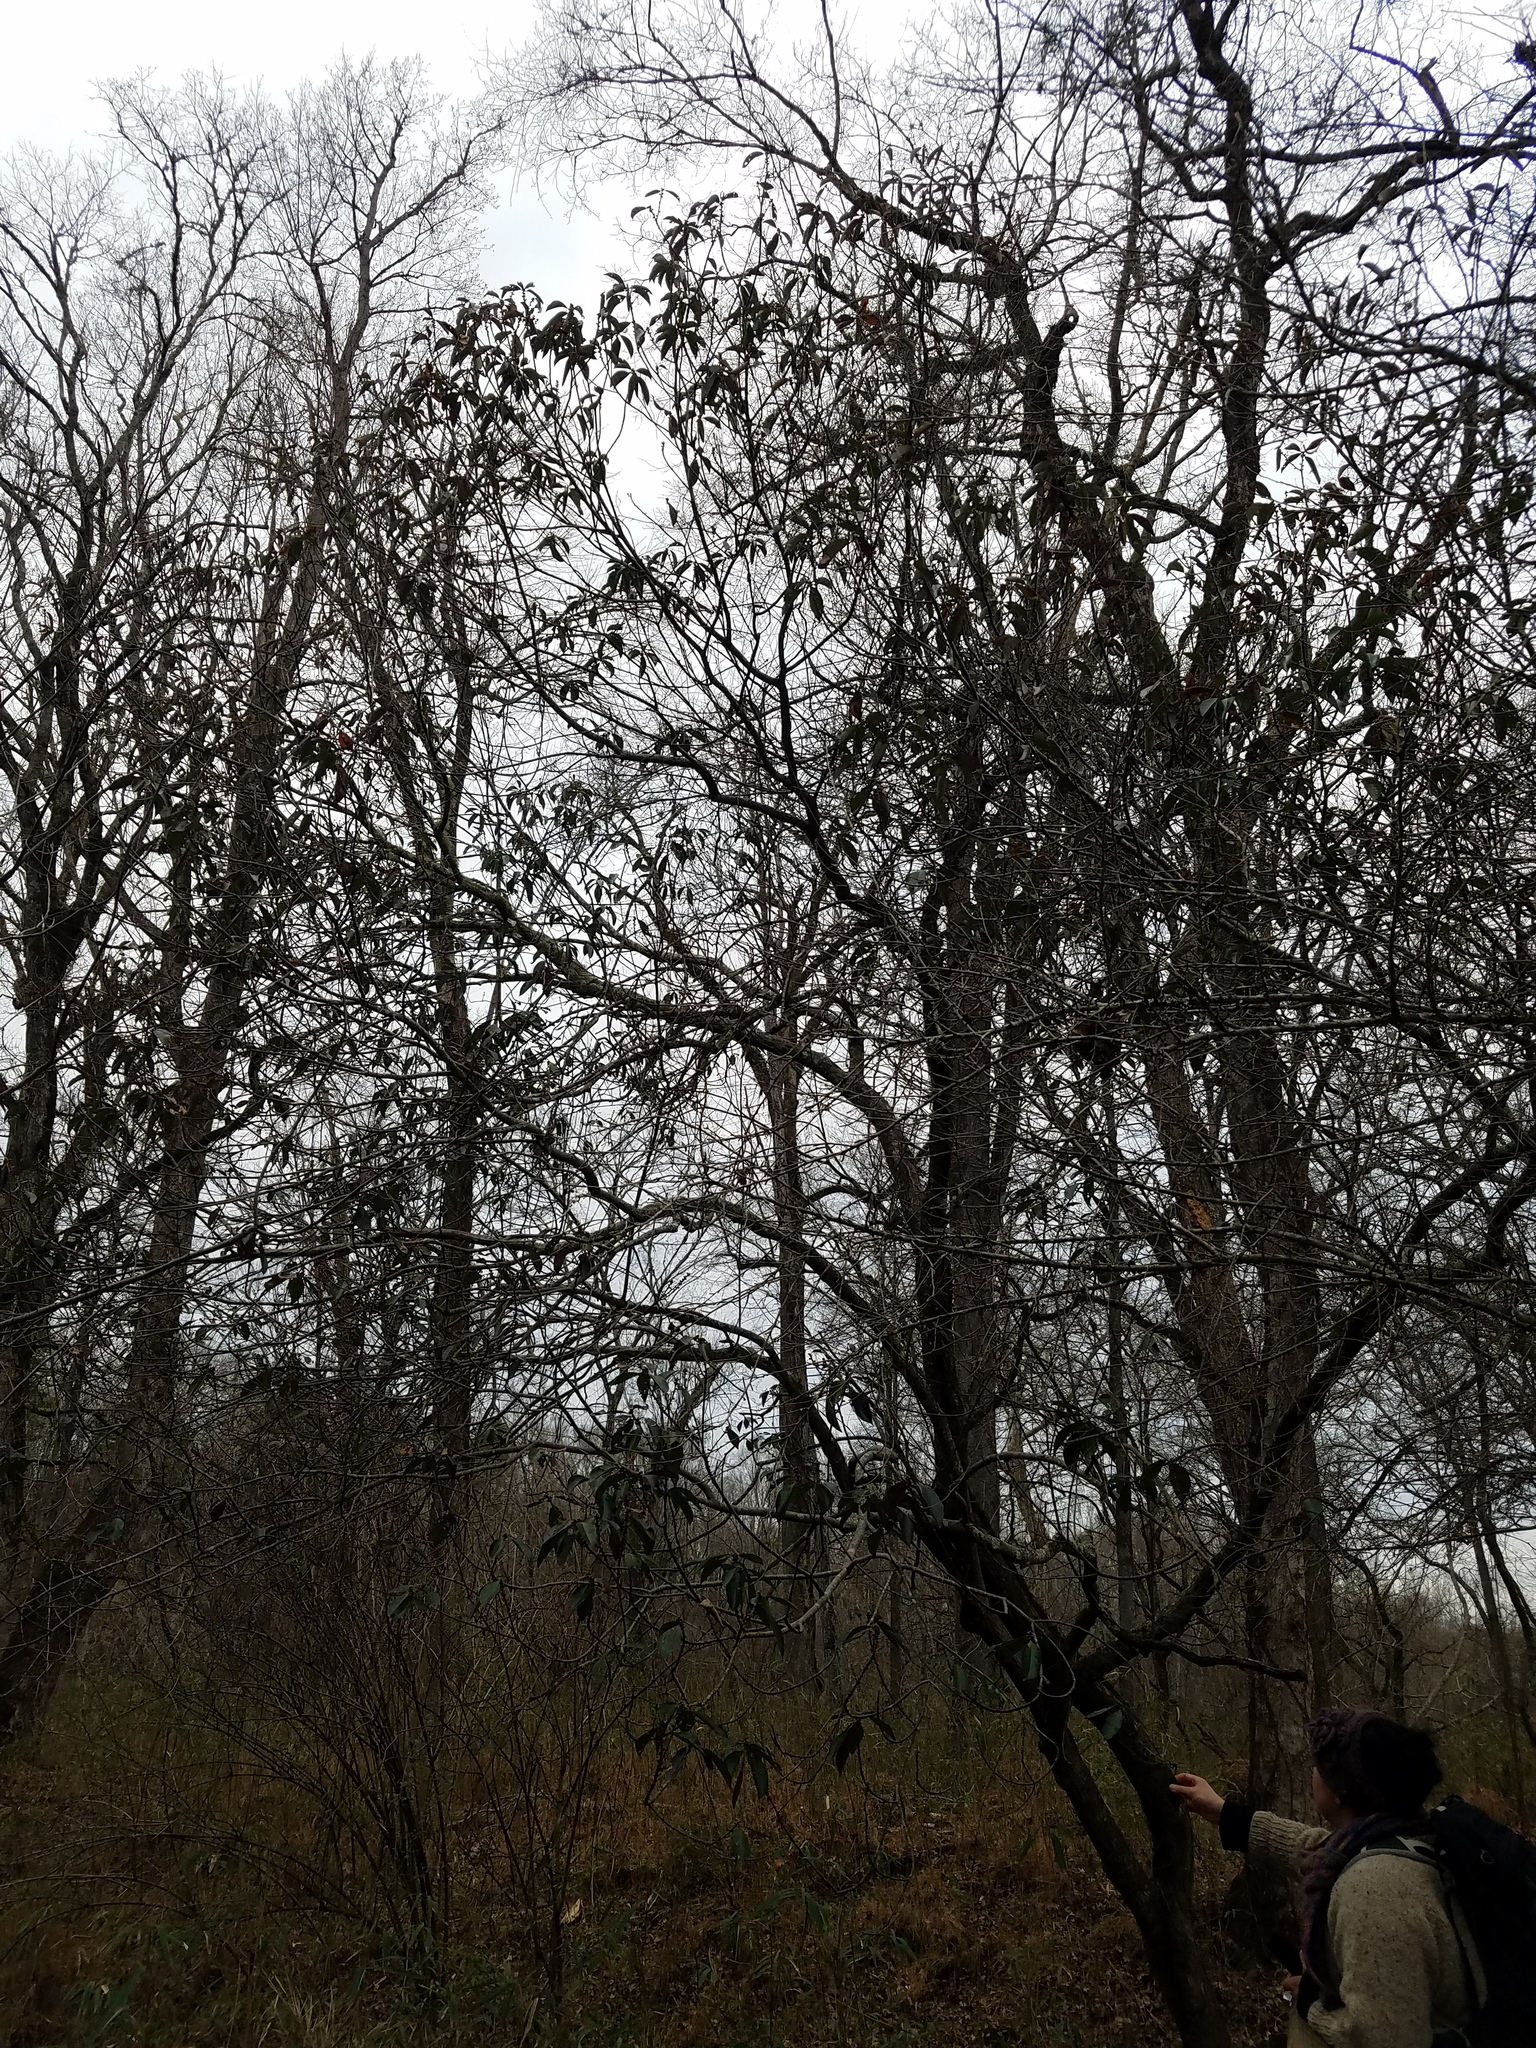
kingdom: Plantae
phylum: Tracheophyta
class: Magnoliopsida
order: Ericales
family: Symplocaceae
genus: Symplocos
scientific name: Symplocos tinctoria
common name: Horse-sugar
